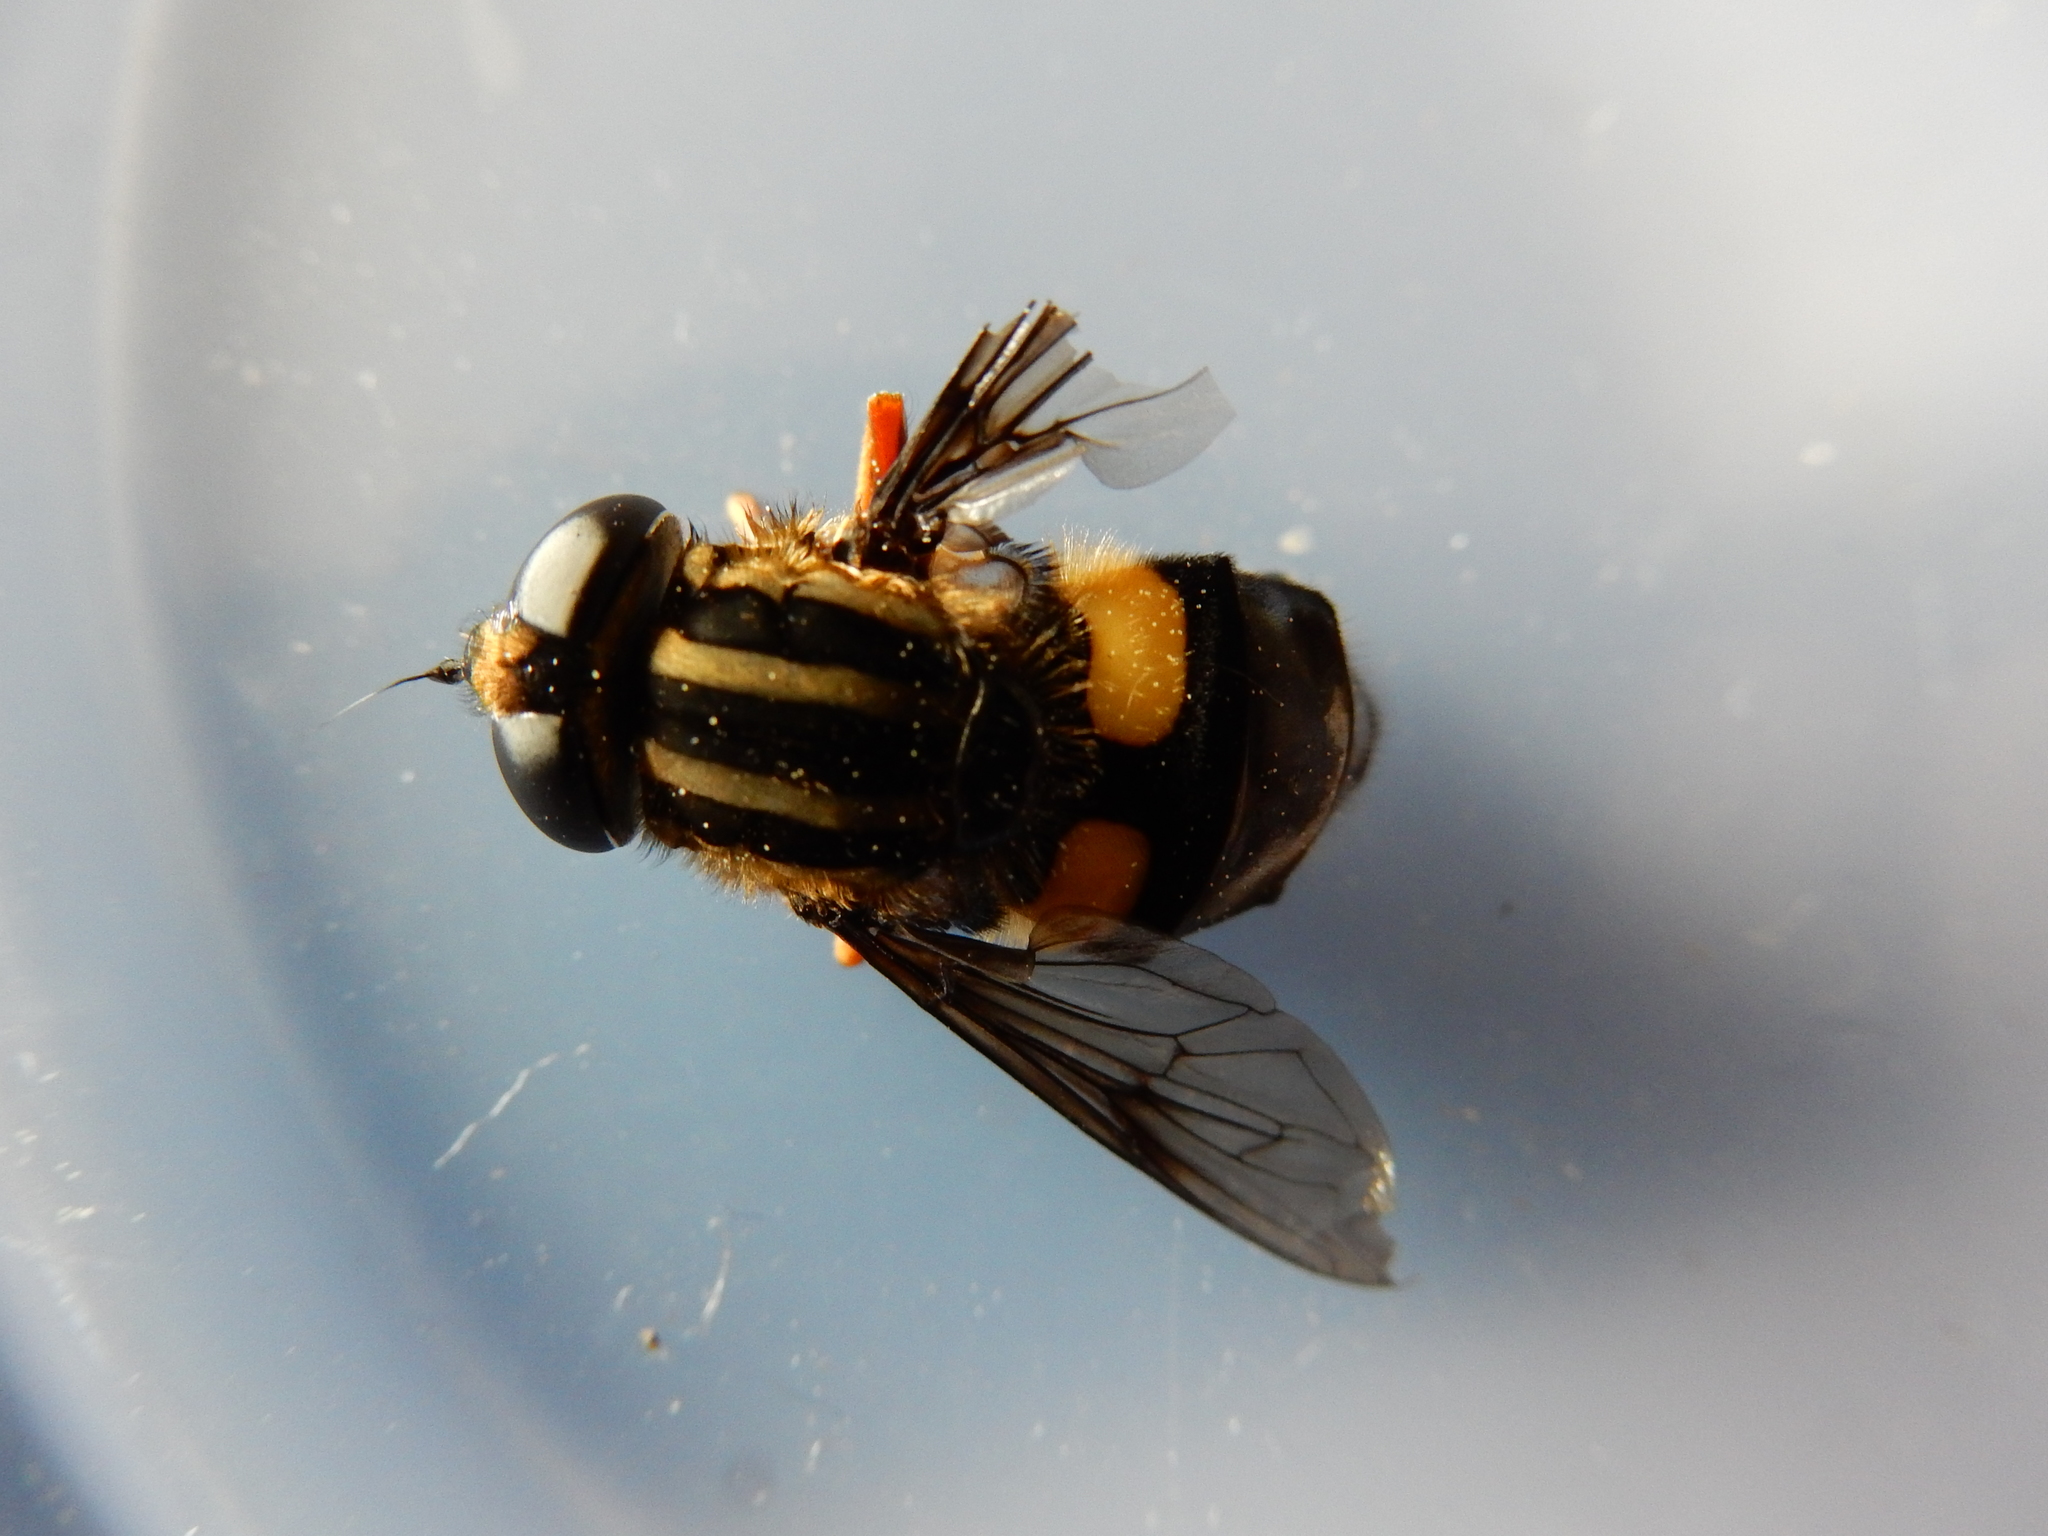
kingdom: Animalia
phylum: Arthropoda
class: Insecta
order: Diptera
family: Syrphidae
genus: Helophilus
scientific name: Helophilus seelandicus
